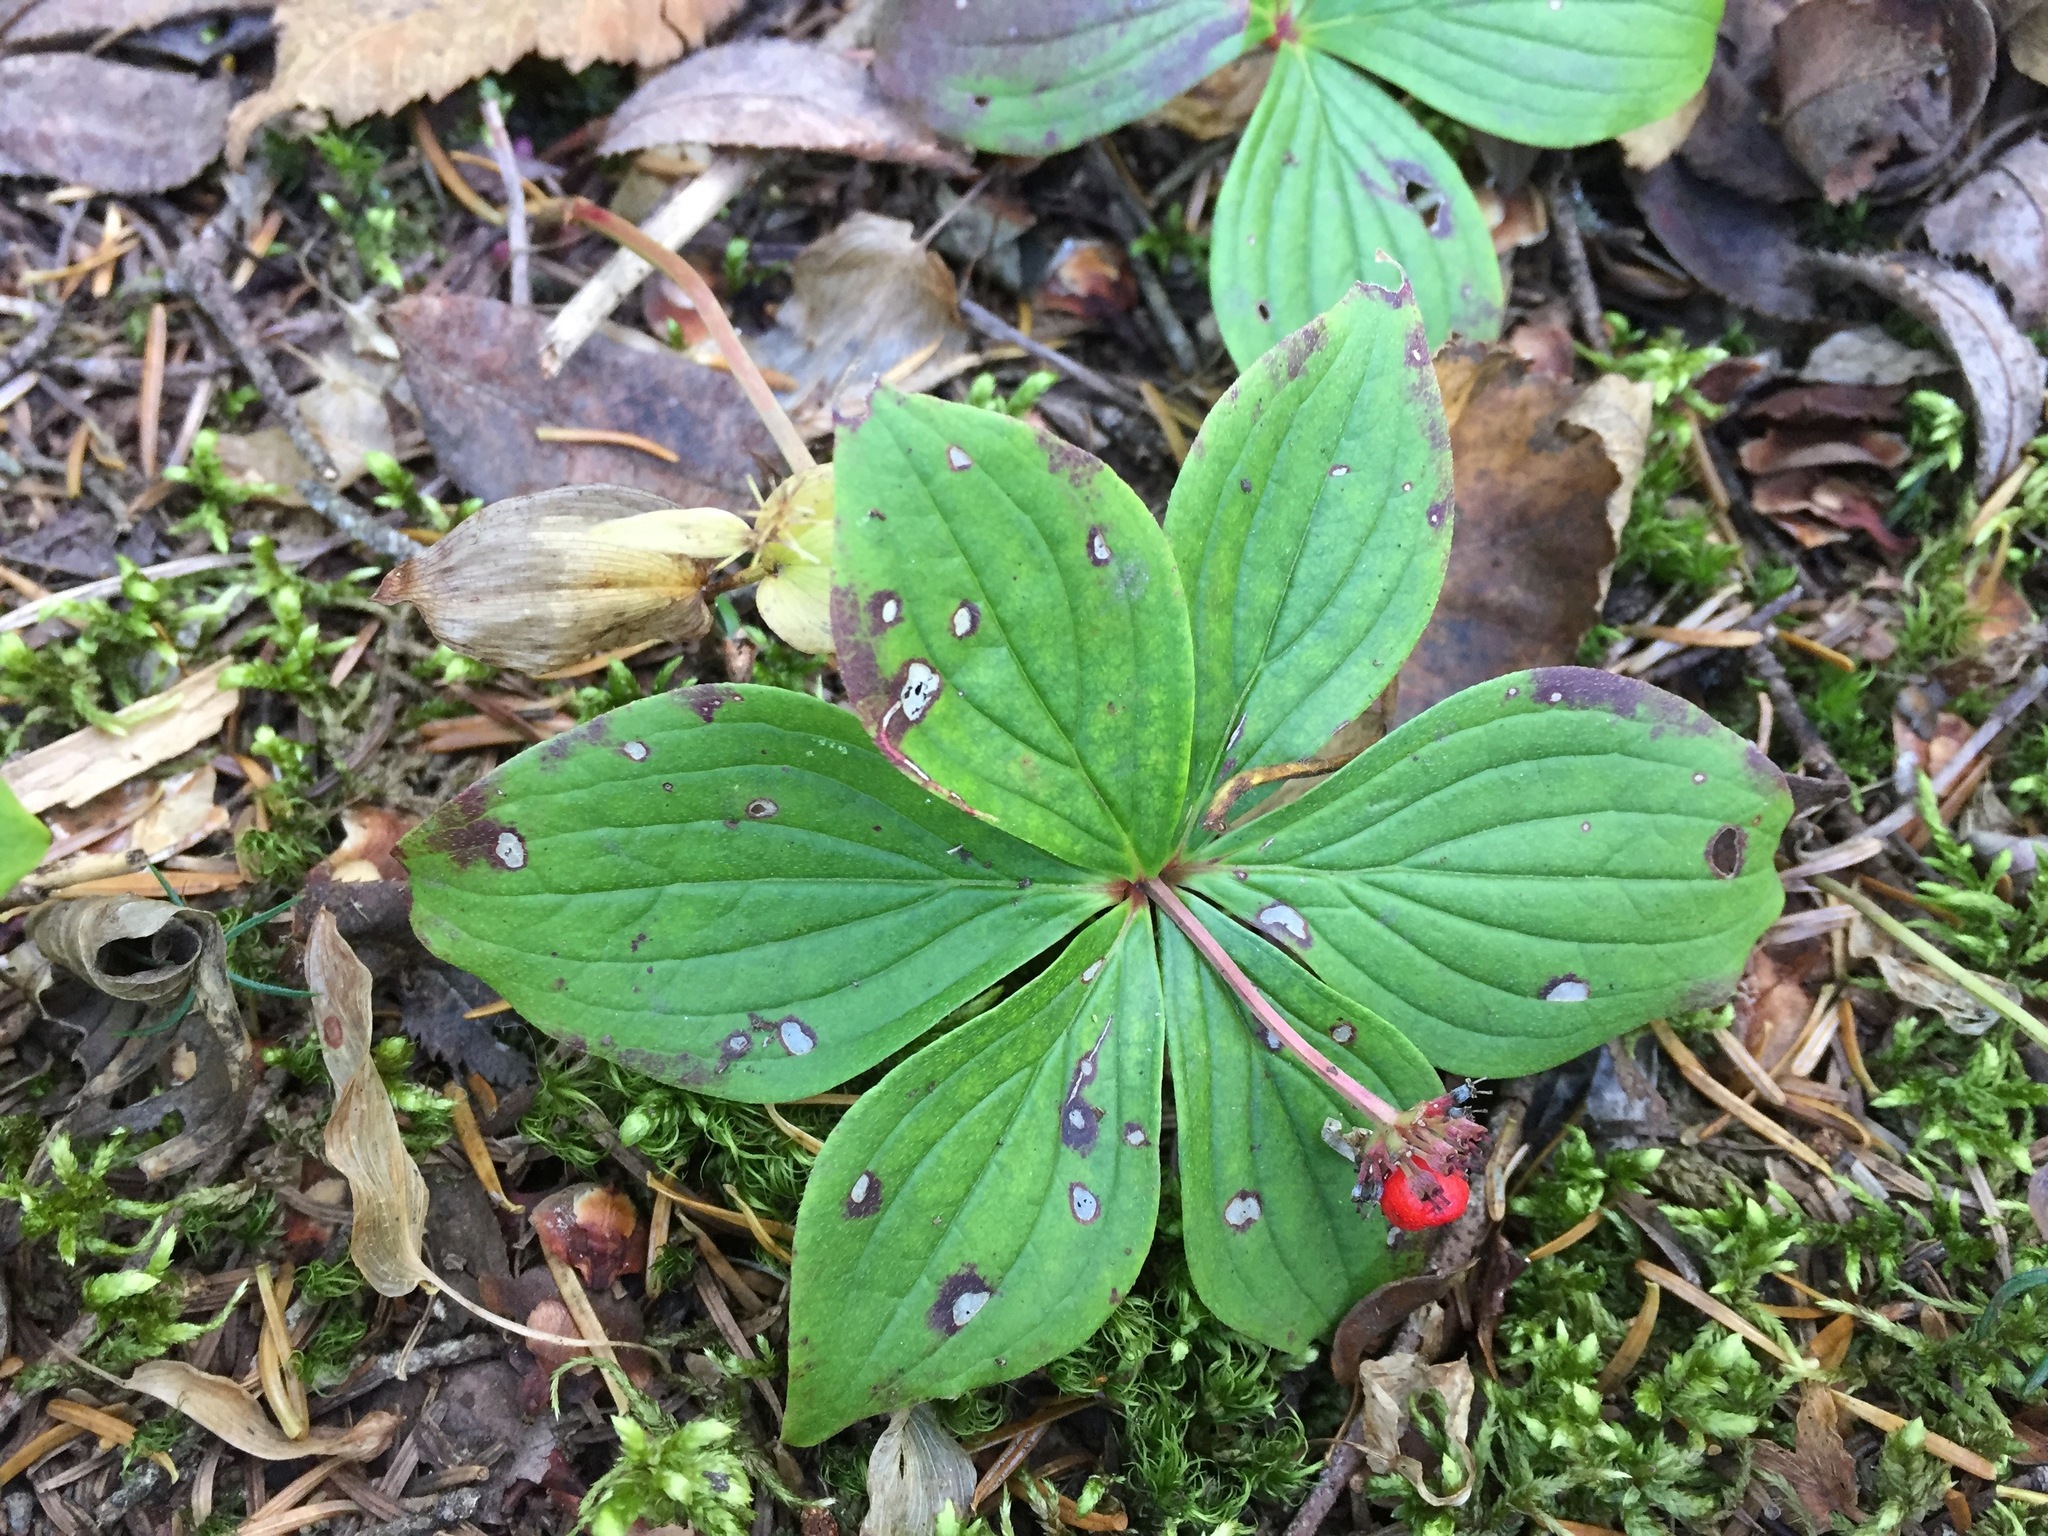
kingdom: Plantae
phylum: Tracheophyta
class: Magnoliopsida
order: Cornales
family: Cornaceae
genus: Cornus
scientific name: Cornus canadensis
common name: Creeping dogwood
